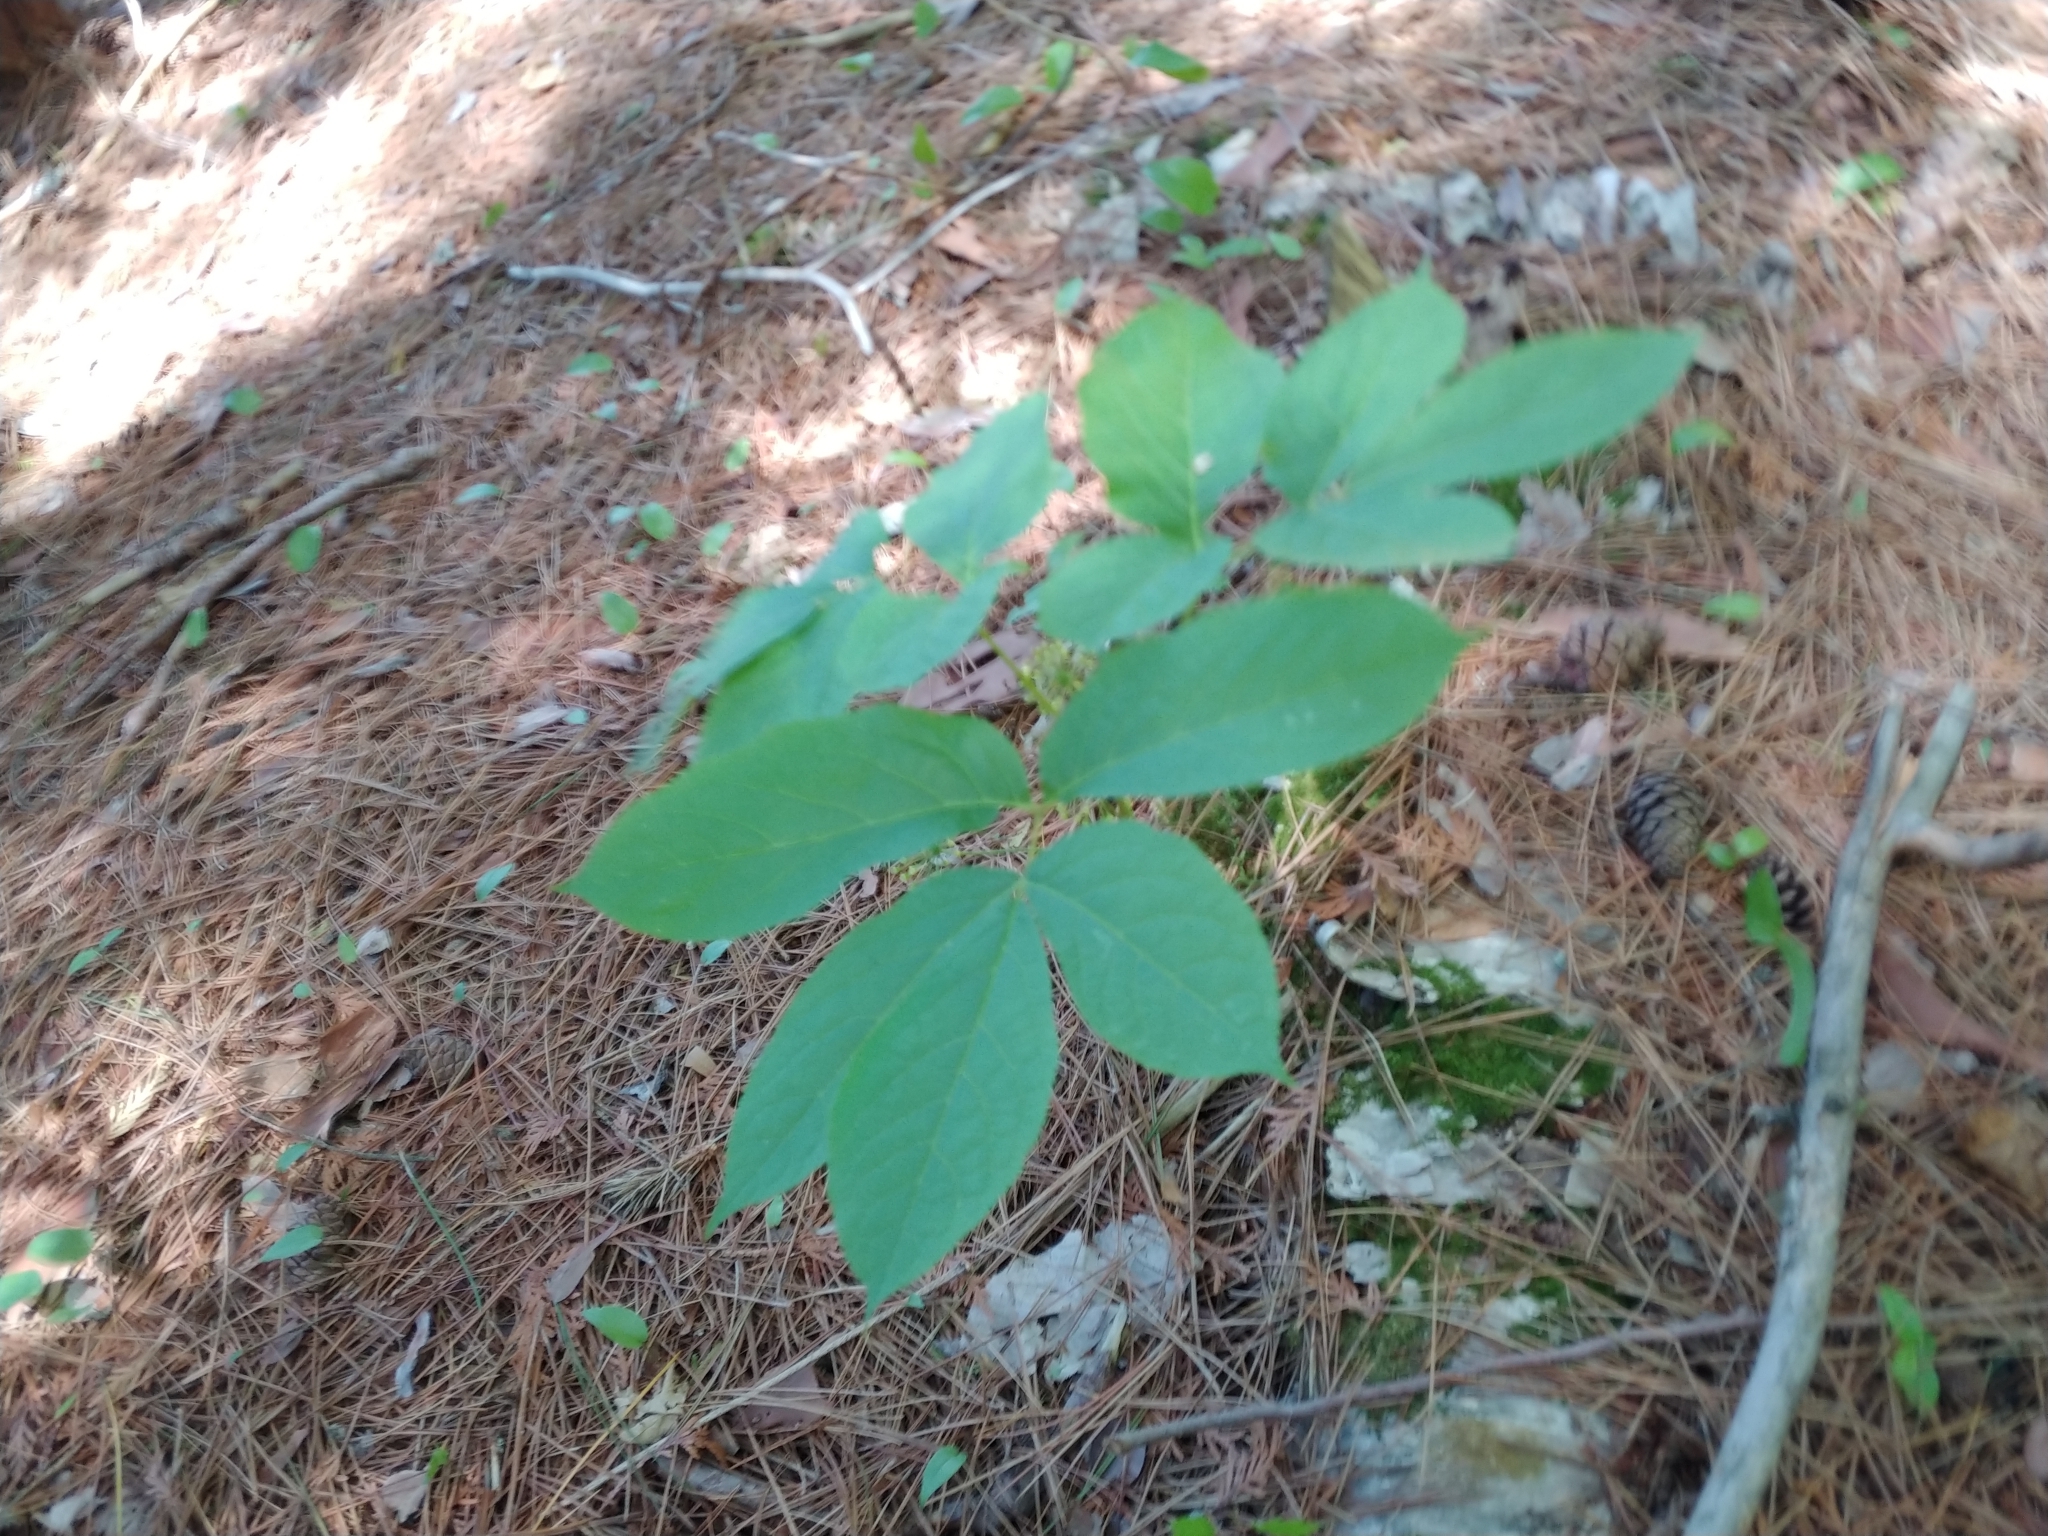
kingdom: Plantae
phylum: Tracheophyta
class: Magnoliopsida
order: Apiales
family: Araliaceae
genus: Aralia
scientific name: Aralia nudicaulis
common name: Wild sarsaparilla
